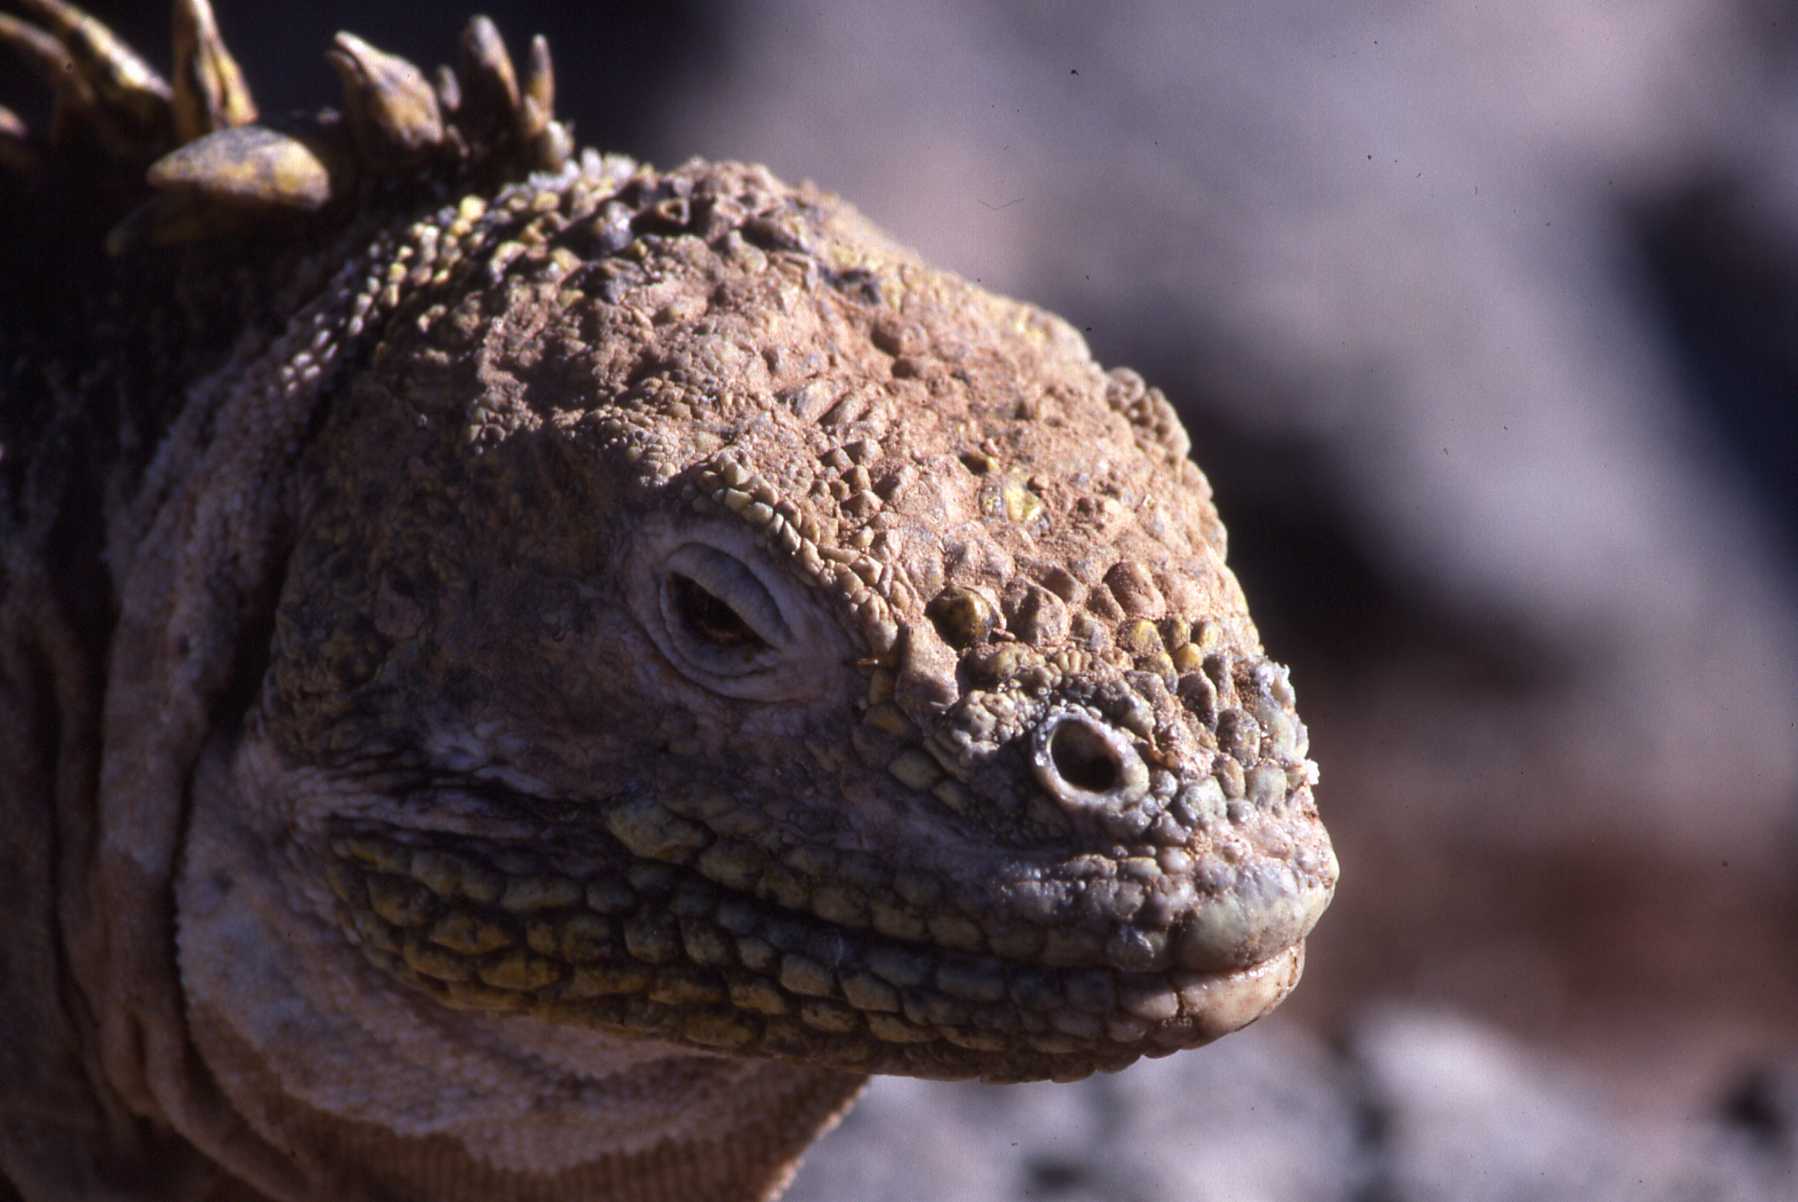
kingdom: Animalia
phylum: Chordata
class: Squamata
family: Iguanidae
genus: Conolophus
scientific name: Conolophus subcristatus
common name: Galapagos land iguana
